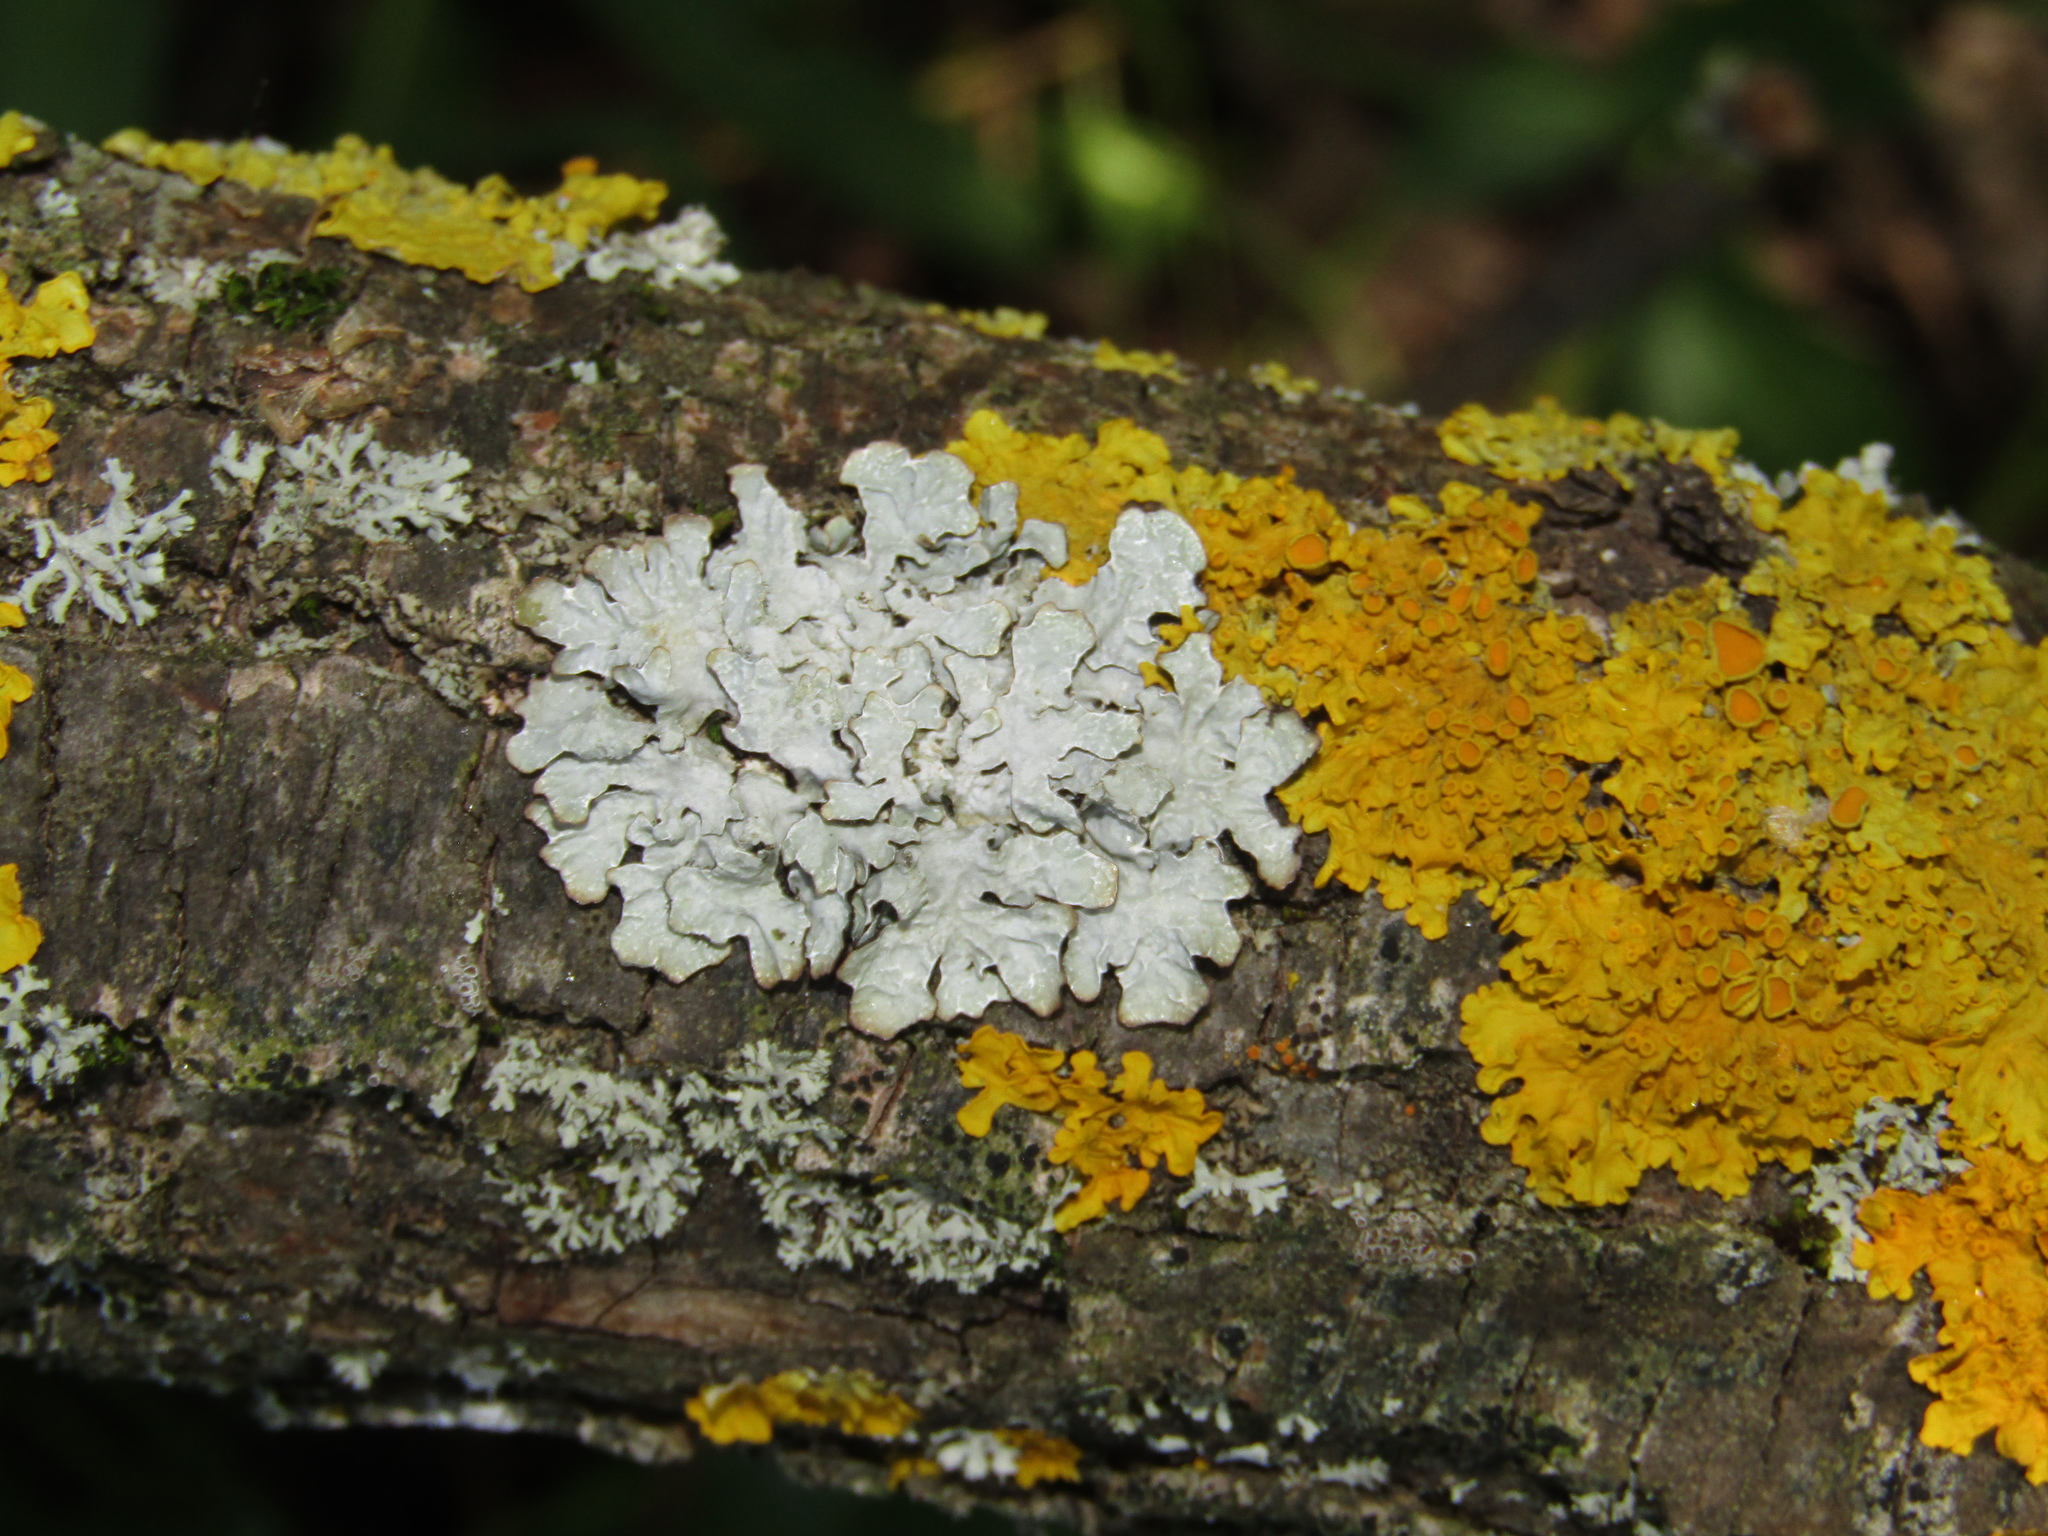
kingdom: Fungi
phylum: Ascomycota
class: Lecanoromycetes
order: Lecanorales
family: Parmeliaceae
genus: Parmelia
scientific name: Parmelia sulcata
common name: Netted shield lichen
